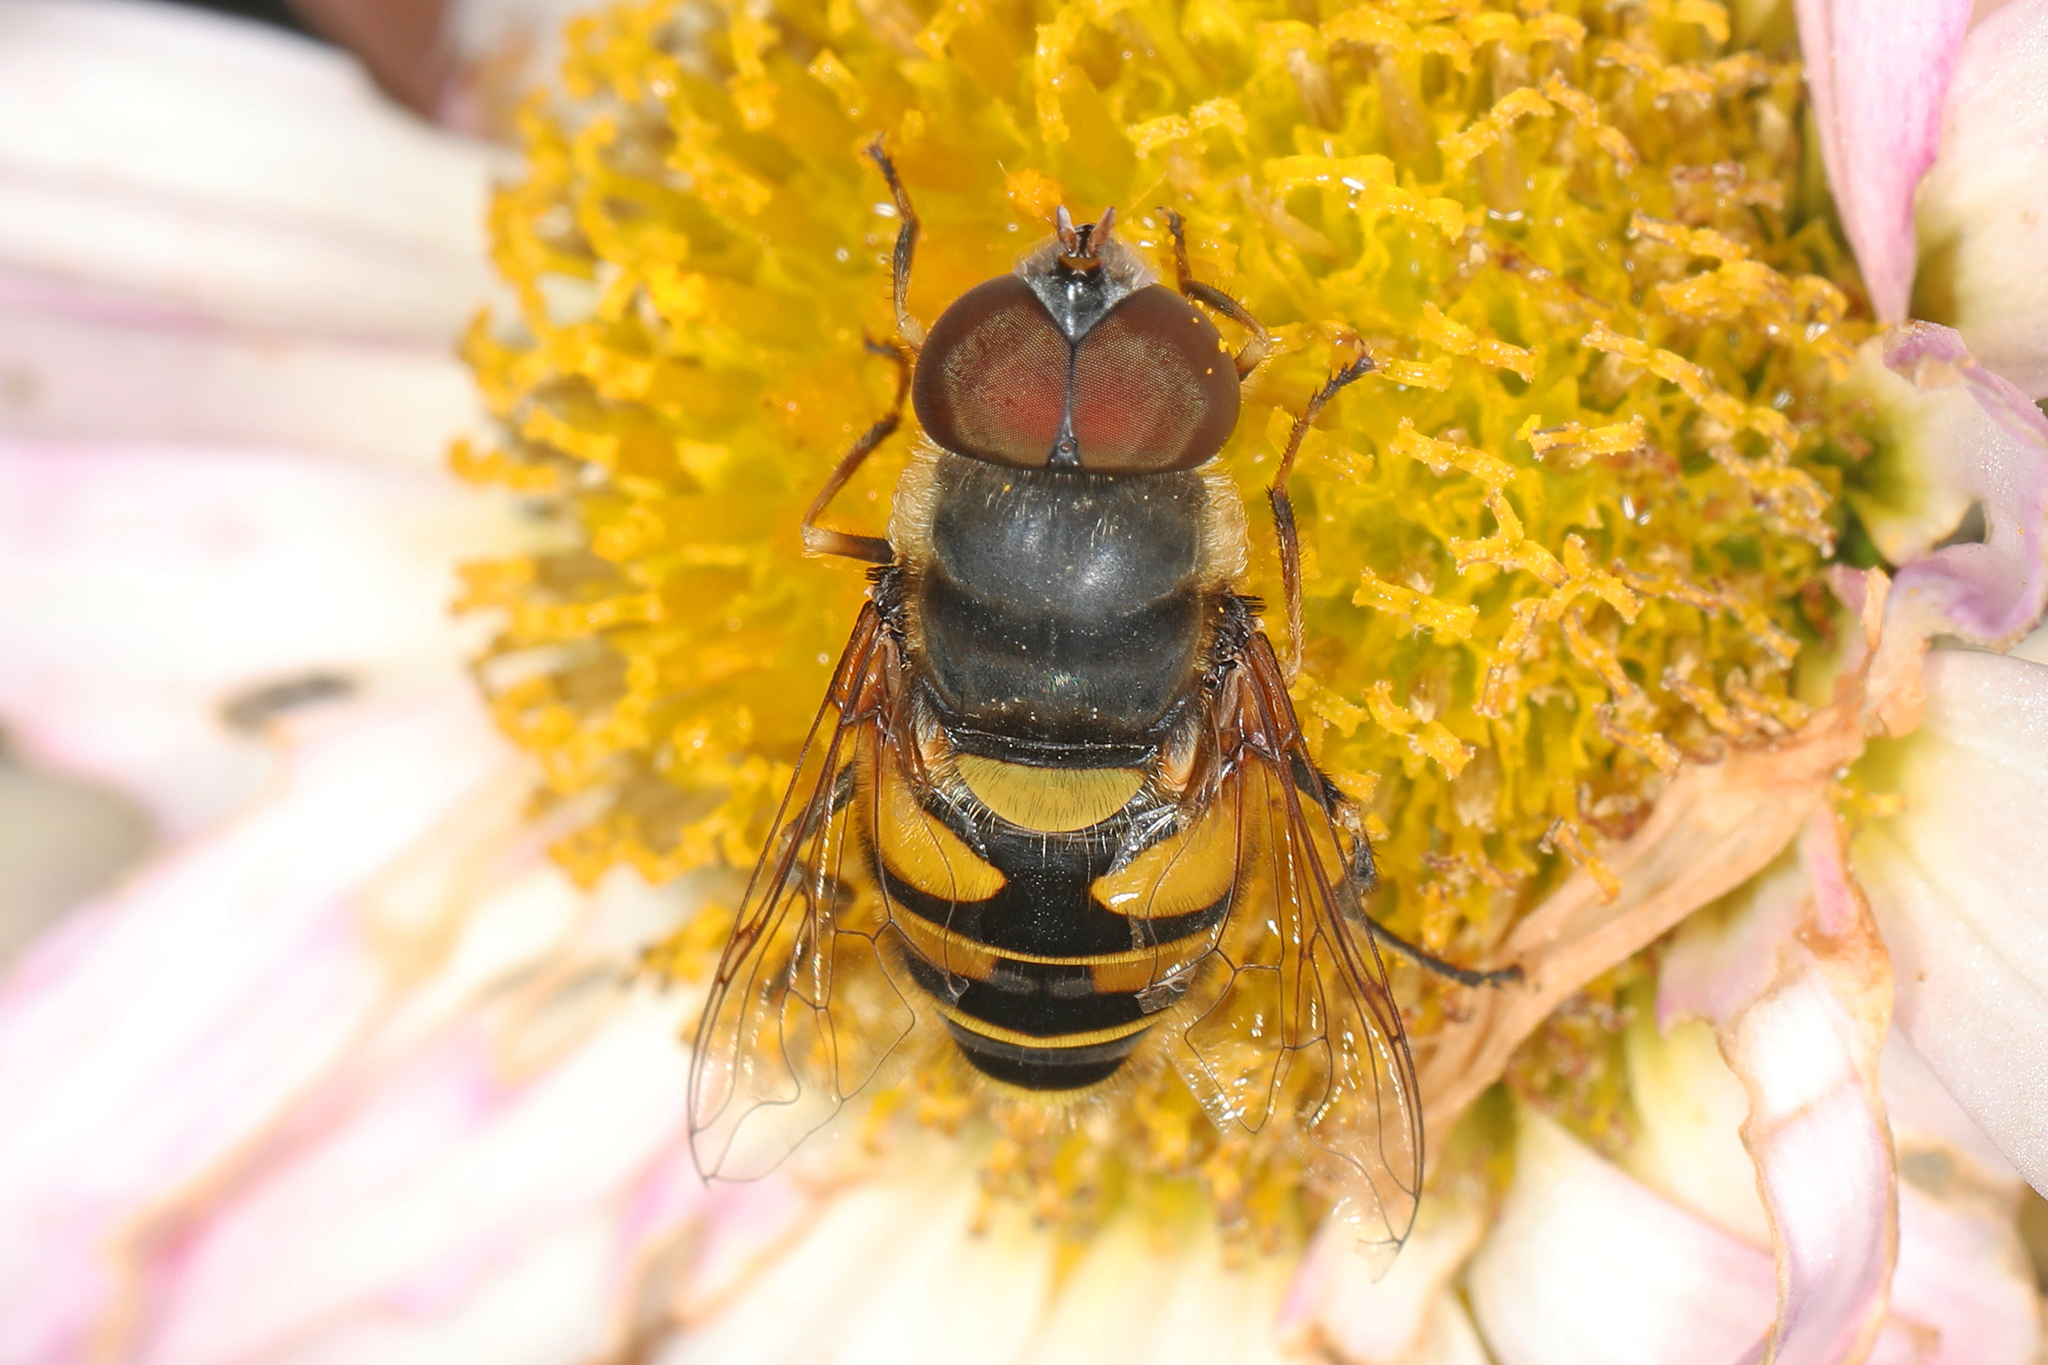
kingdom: Animalia
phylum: Arthropoda
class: Insecta
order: Diptera
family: Syrphidae
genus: Eristalis
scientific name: Eristalis transversa
